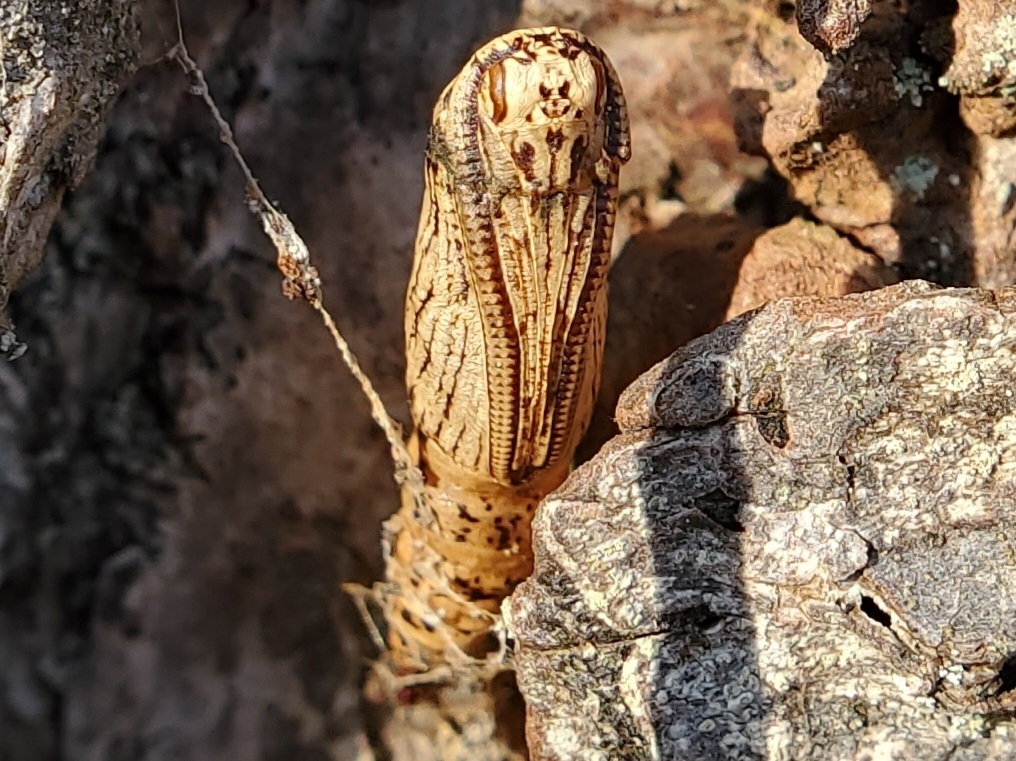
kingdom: Animalia
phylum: Arthropoda
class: Insecta
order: Lepidoptera
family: Geometridae
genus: Lambdina
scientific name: Lambdina fiscellaria
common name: Hemlock looper
